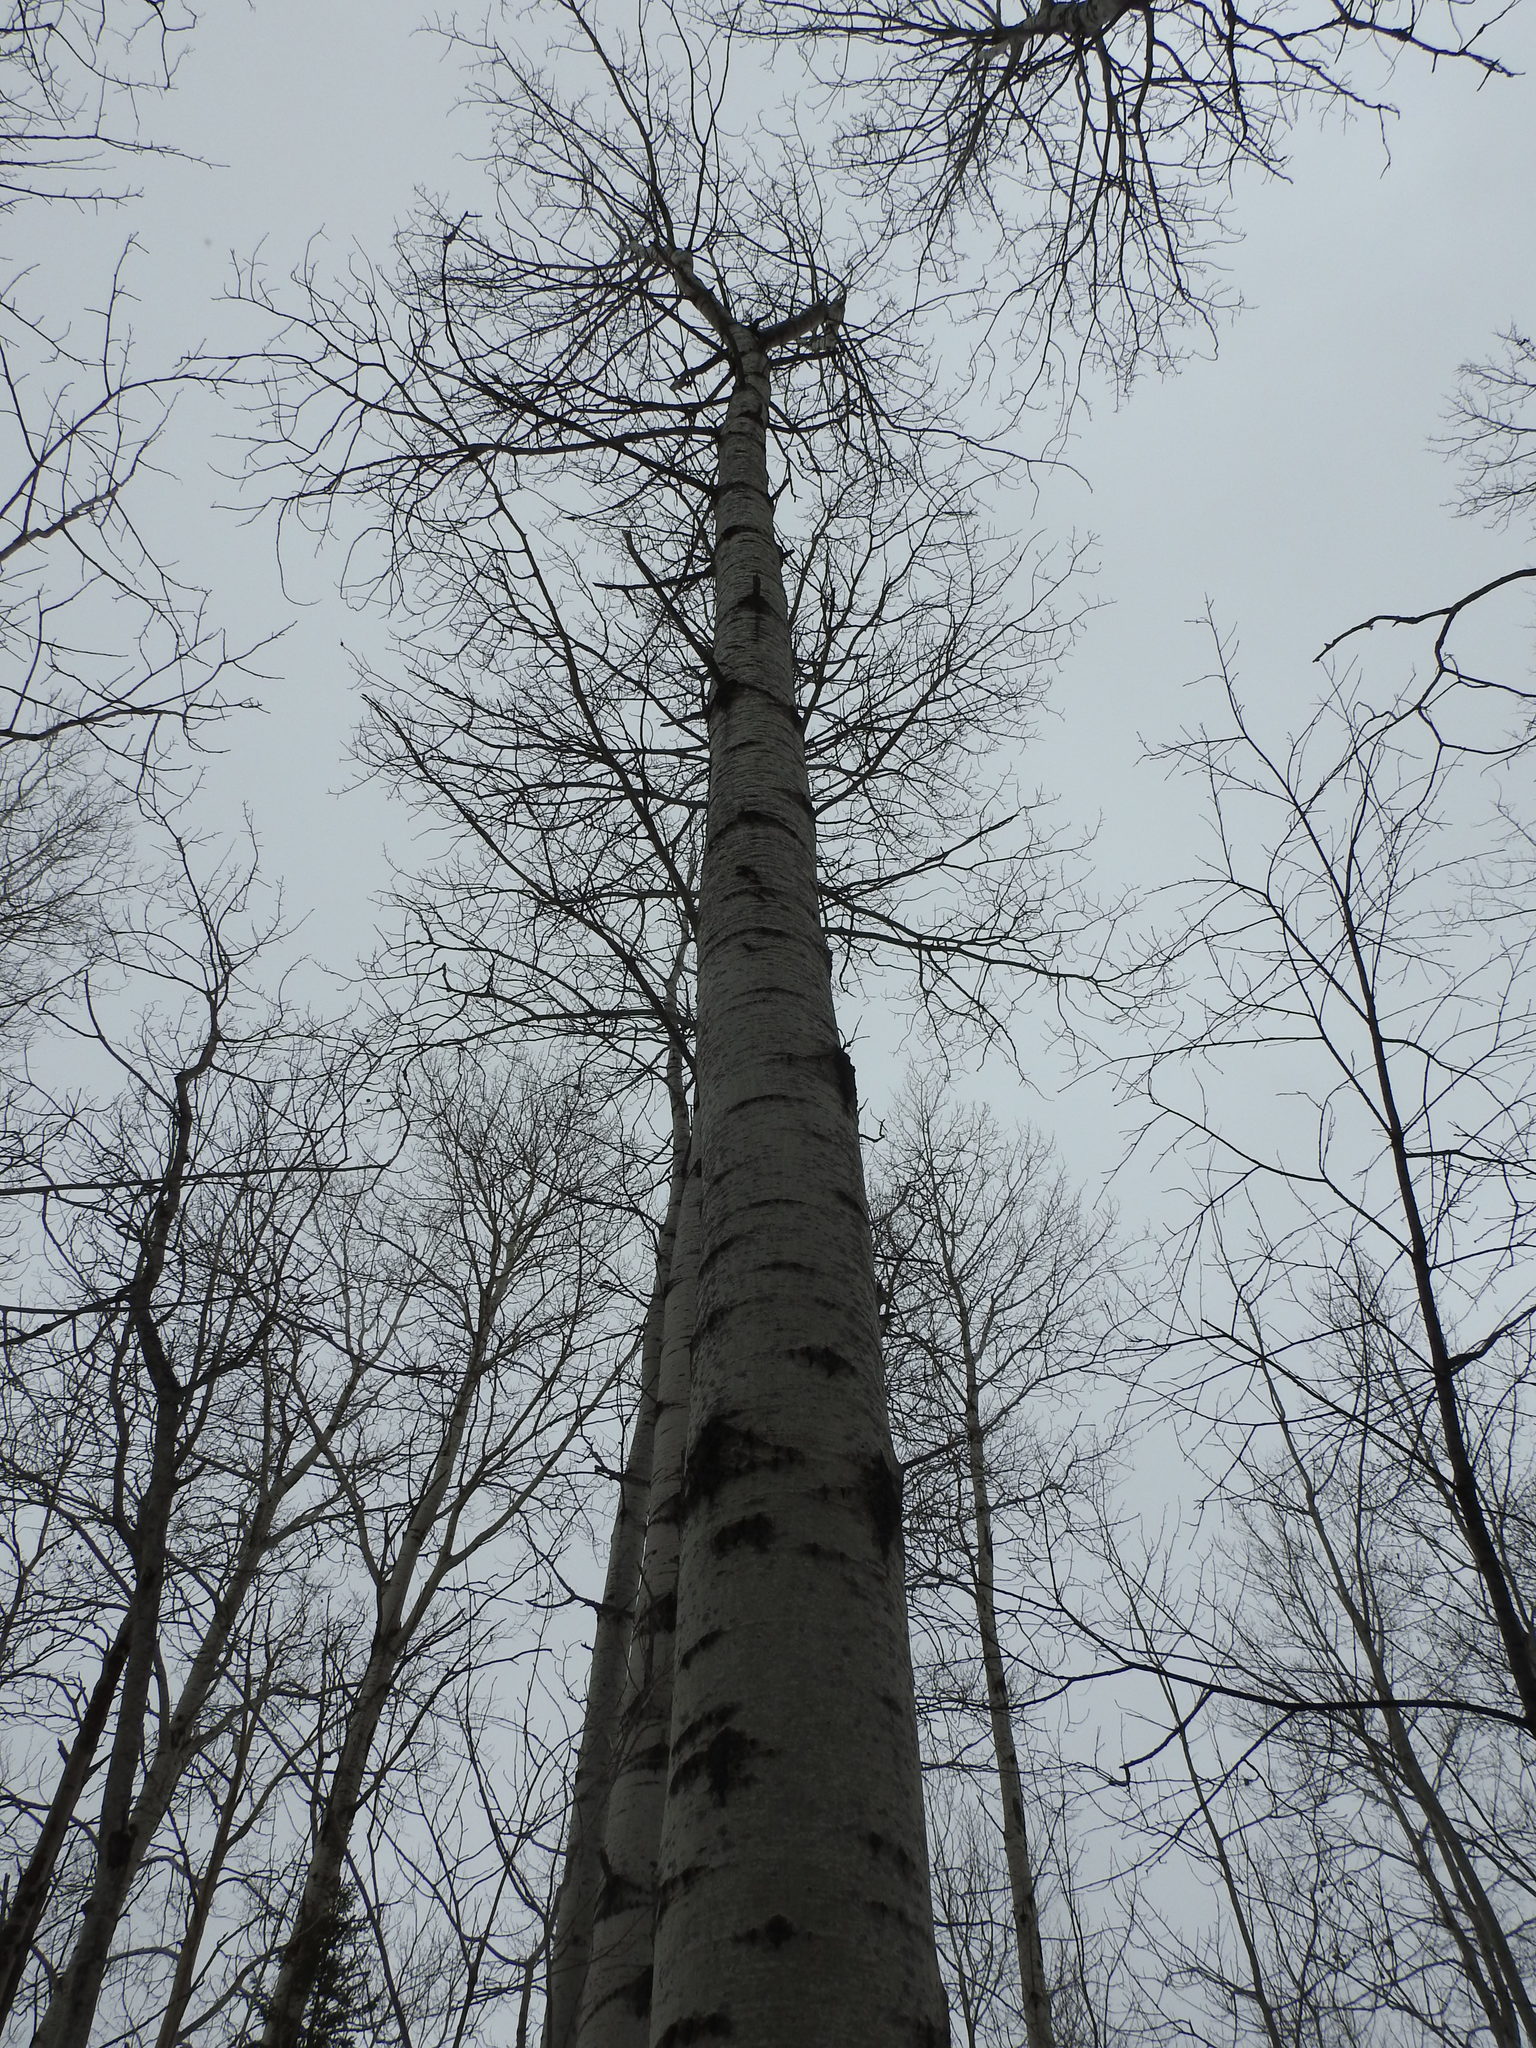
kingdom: Plantae
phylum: Tracheophyta
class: Magnoliopsida
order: Malpighiales
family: Salicaceae
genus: Populus
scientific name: Populus tremuloides
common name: Quaking aspen
